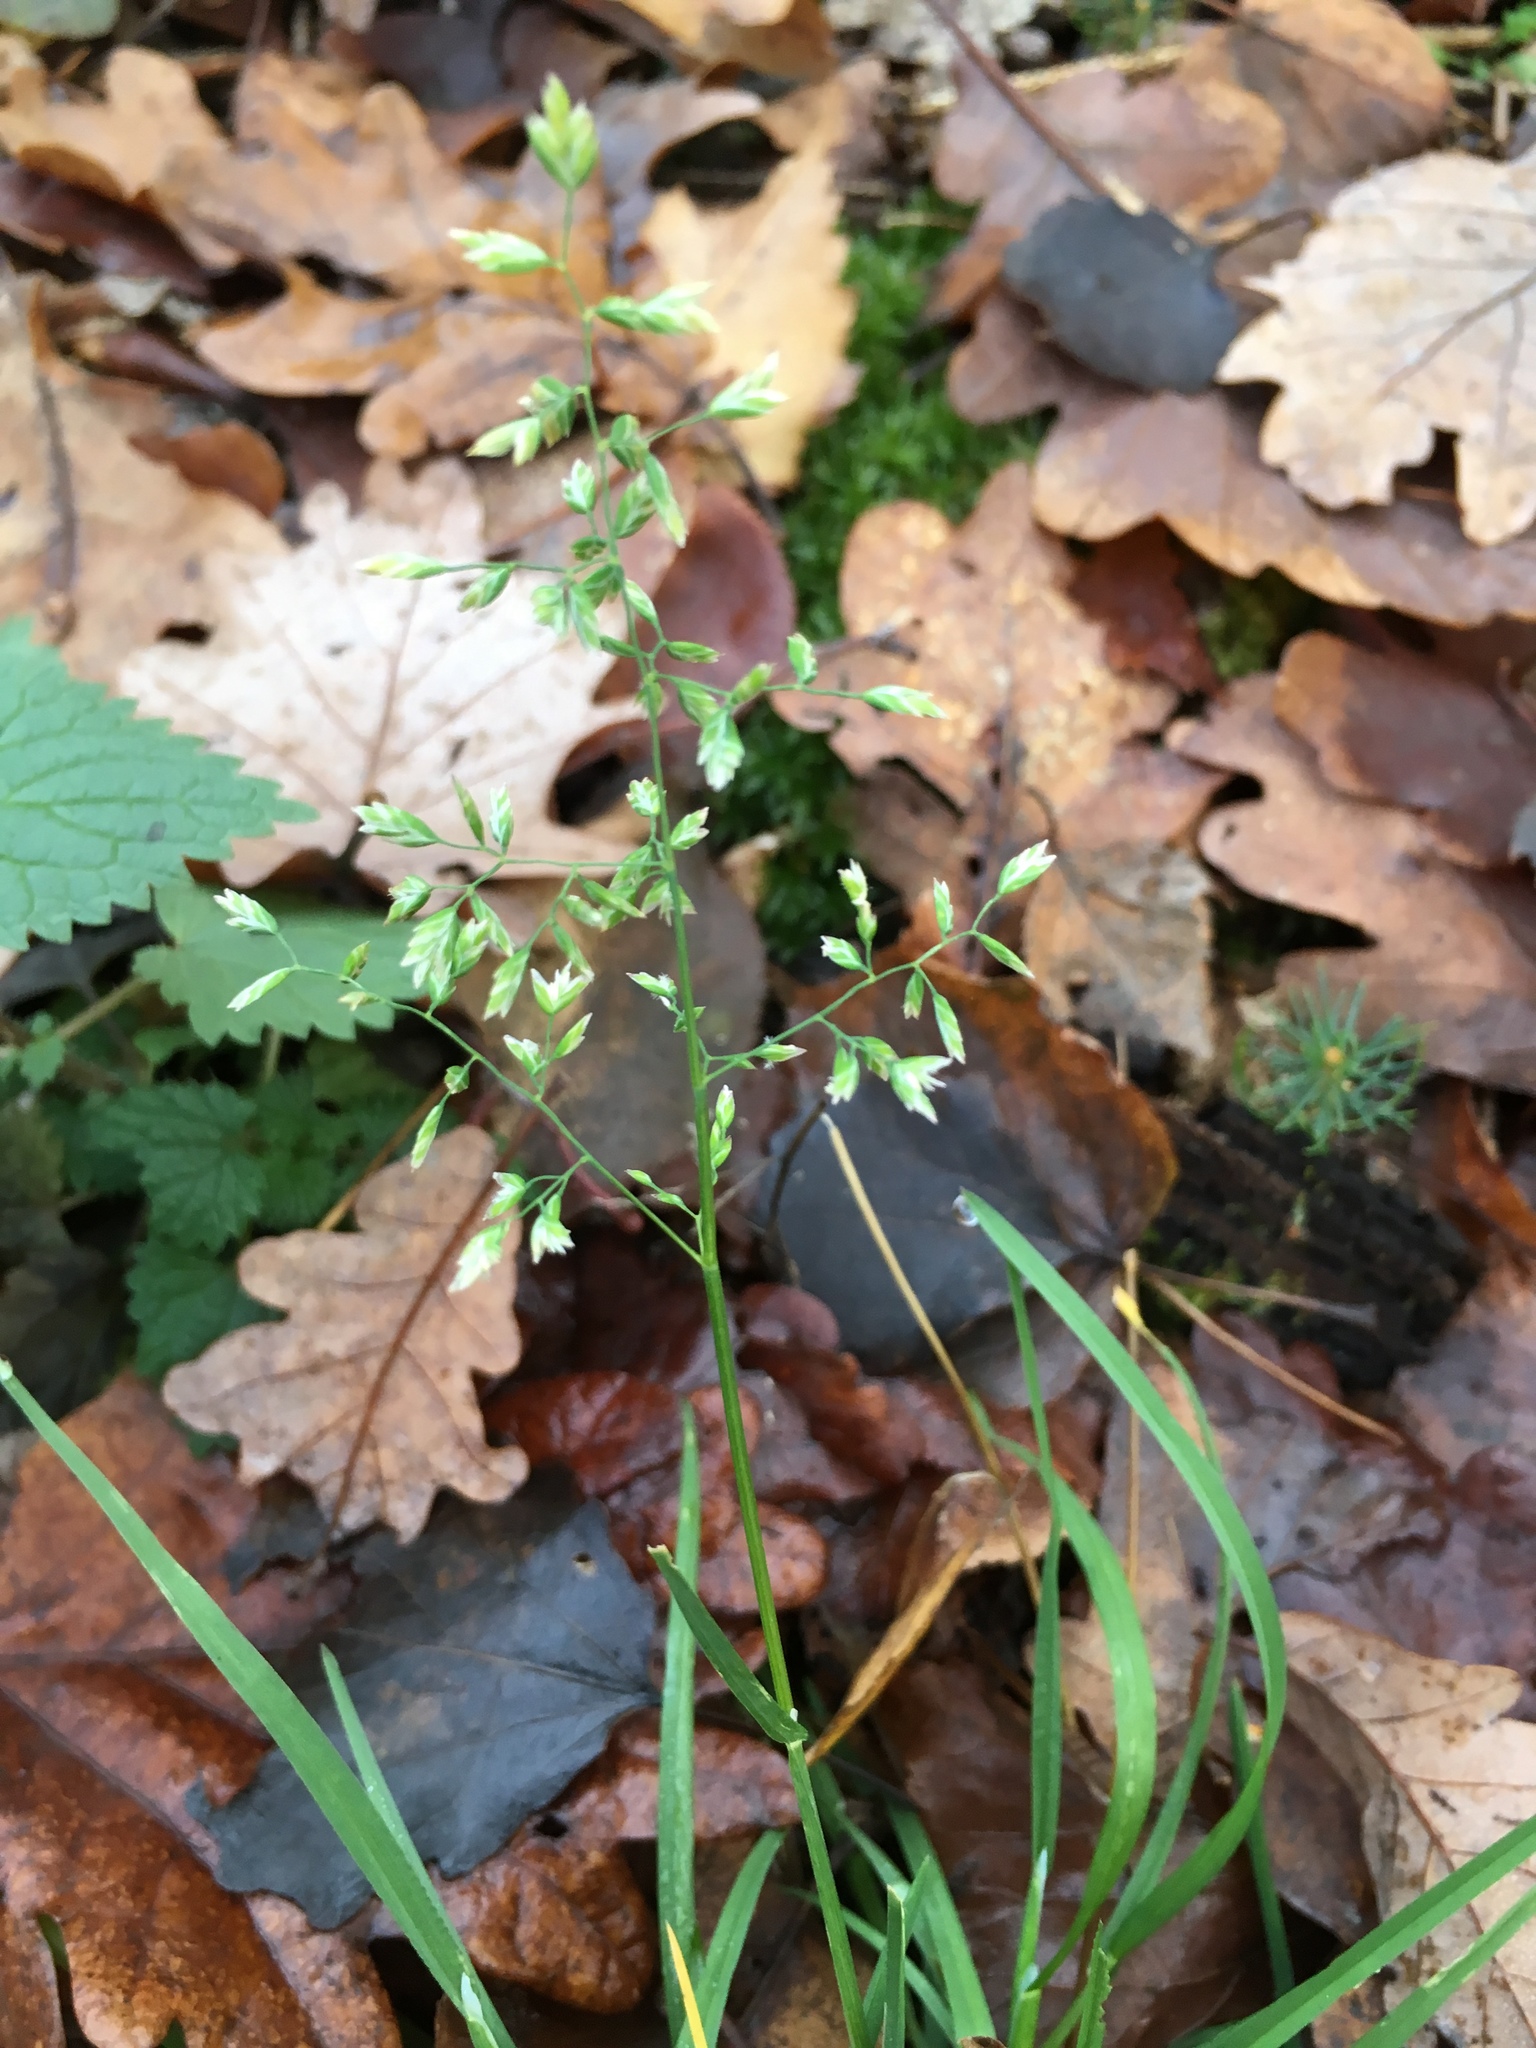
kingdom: Plantae
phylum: Tracheophyta
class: Liliopsida
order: Poales
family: Poaceae
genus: Poa
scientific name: Poa annua
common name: Annual bluegrass
